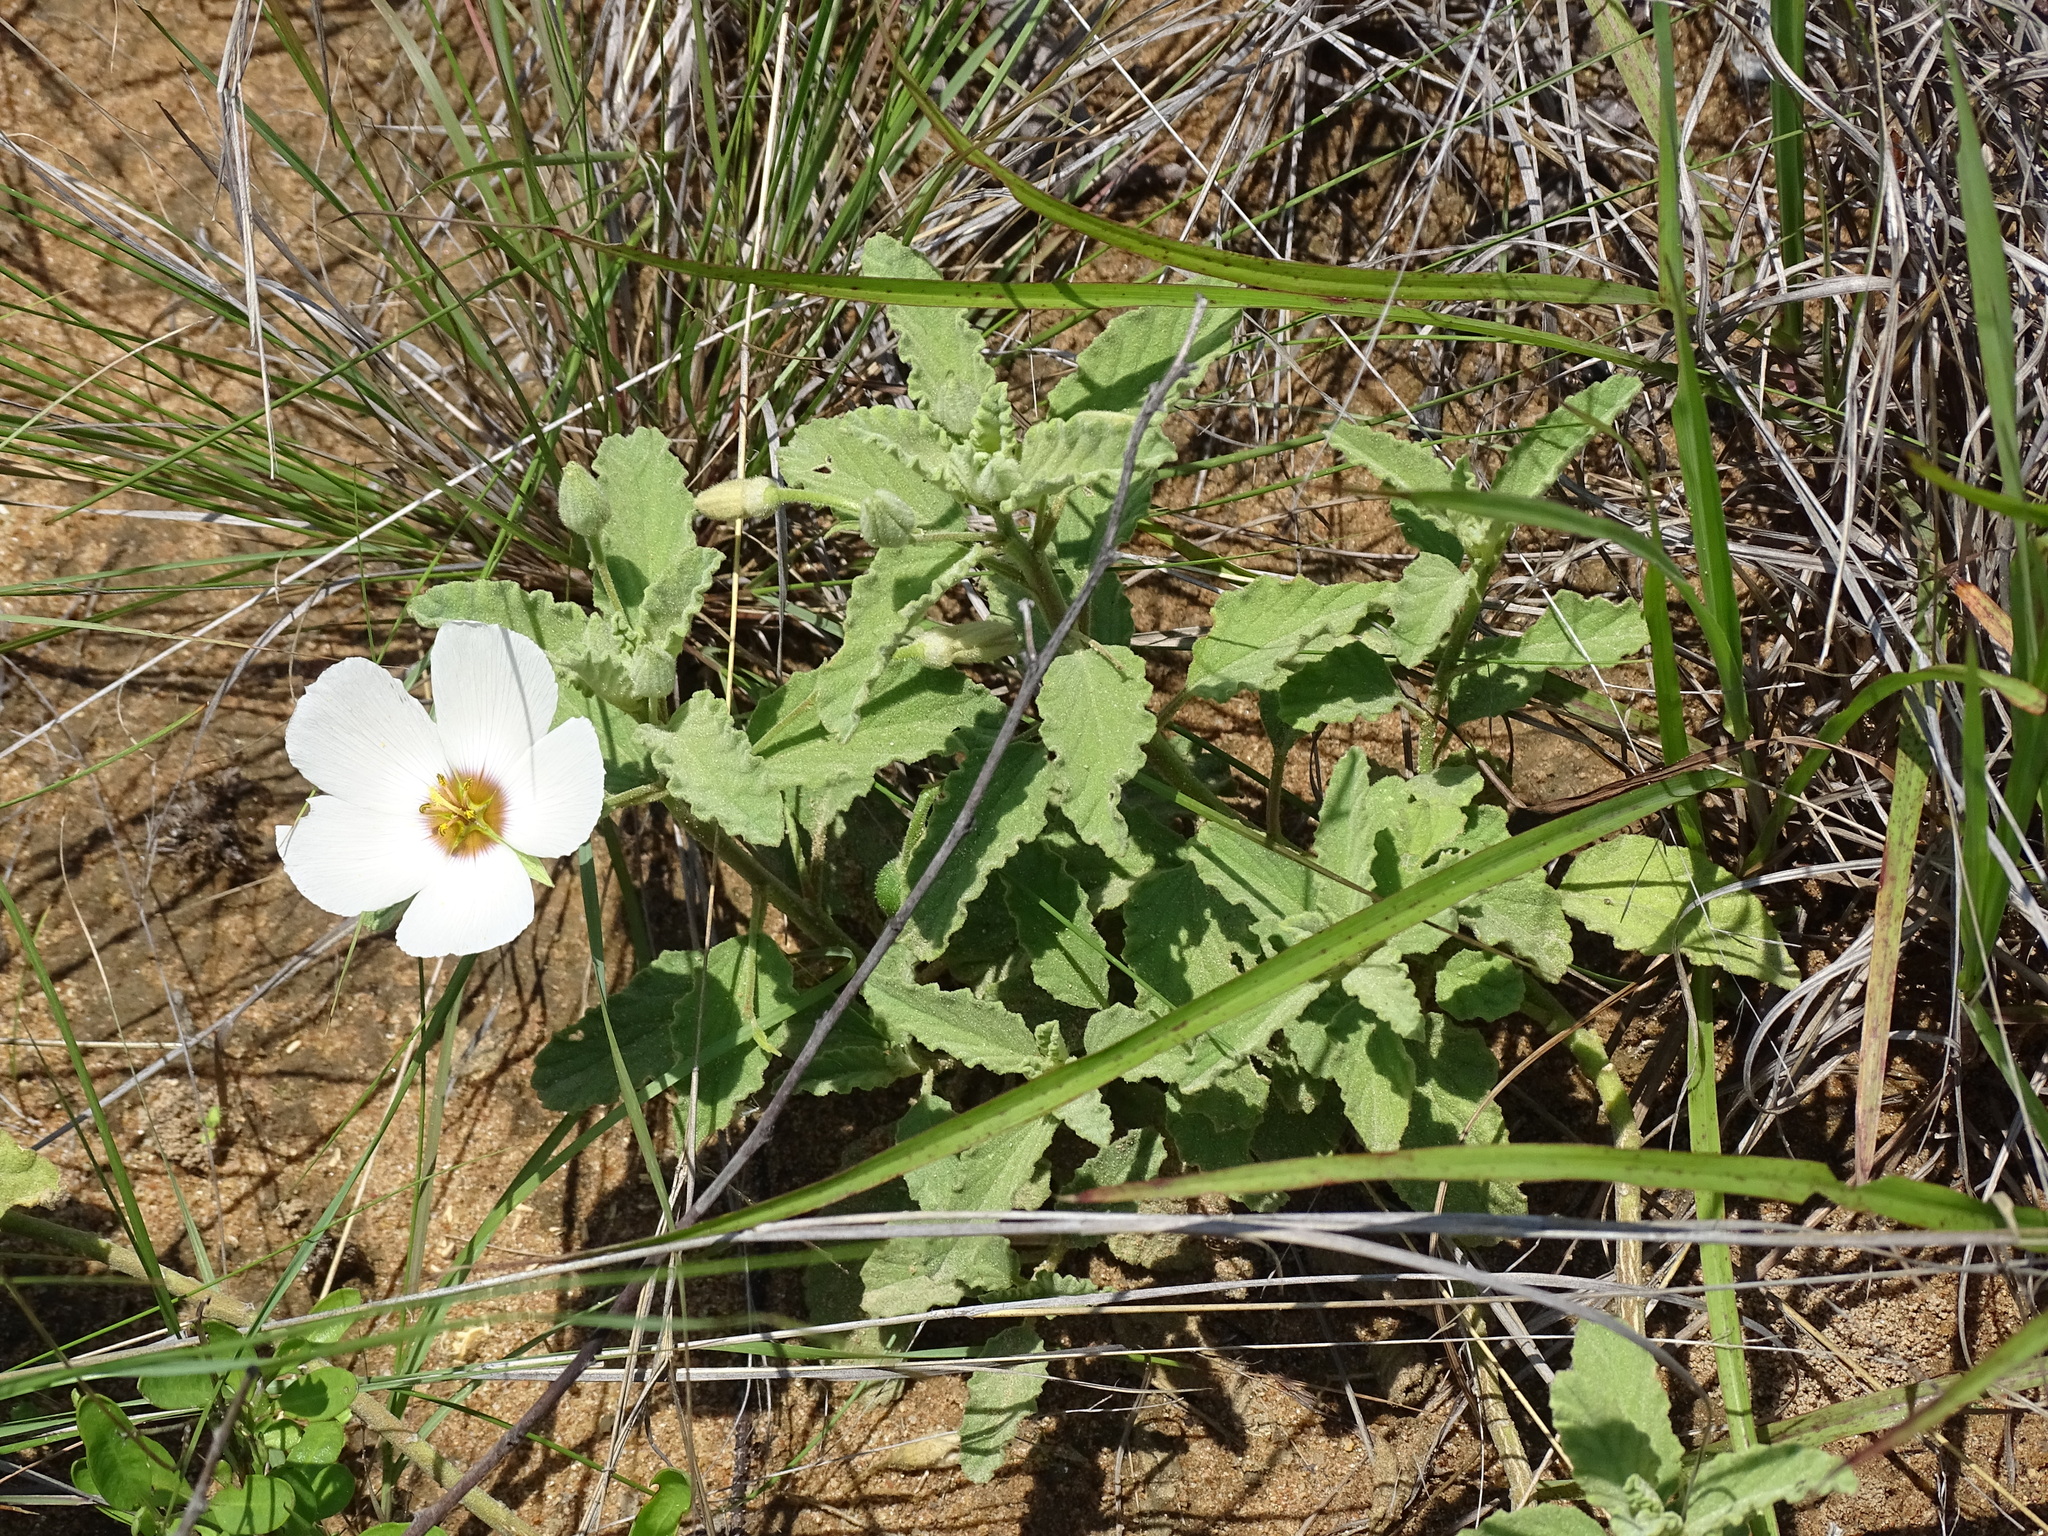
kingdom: Plantae
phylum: Tracheophyta
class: Magnoliopsida
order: Malpighiales
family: Turneraceae
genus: Piriqueta
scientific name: Piriqueta mortonii
